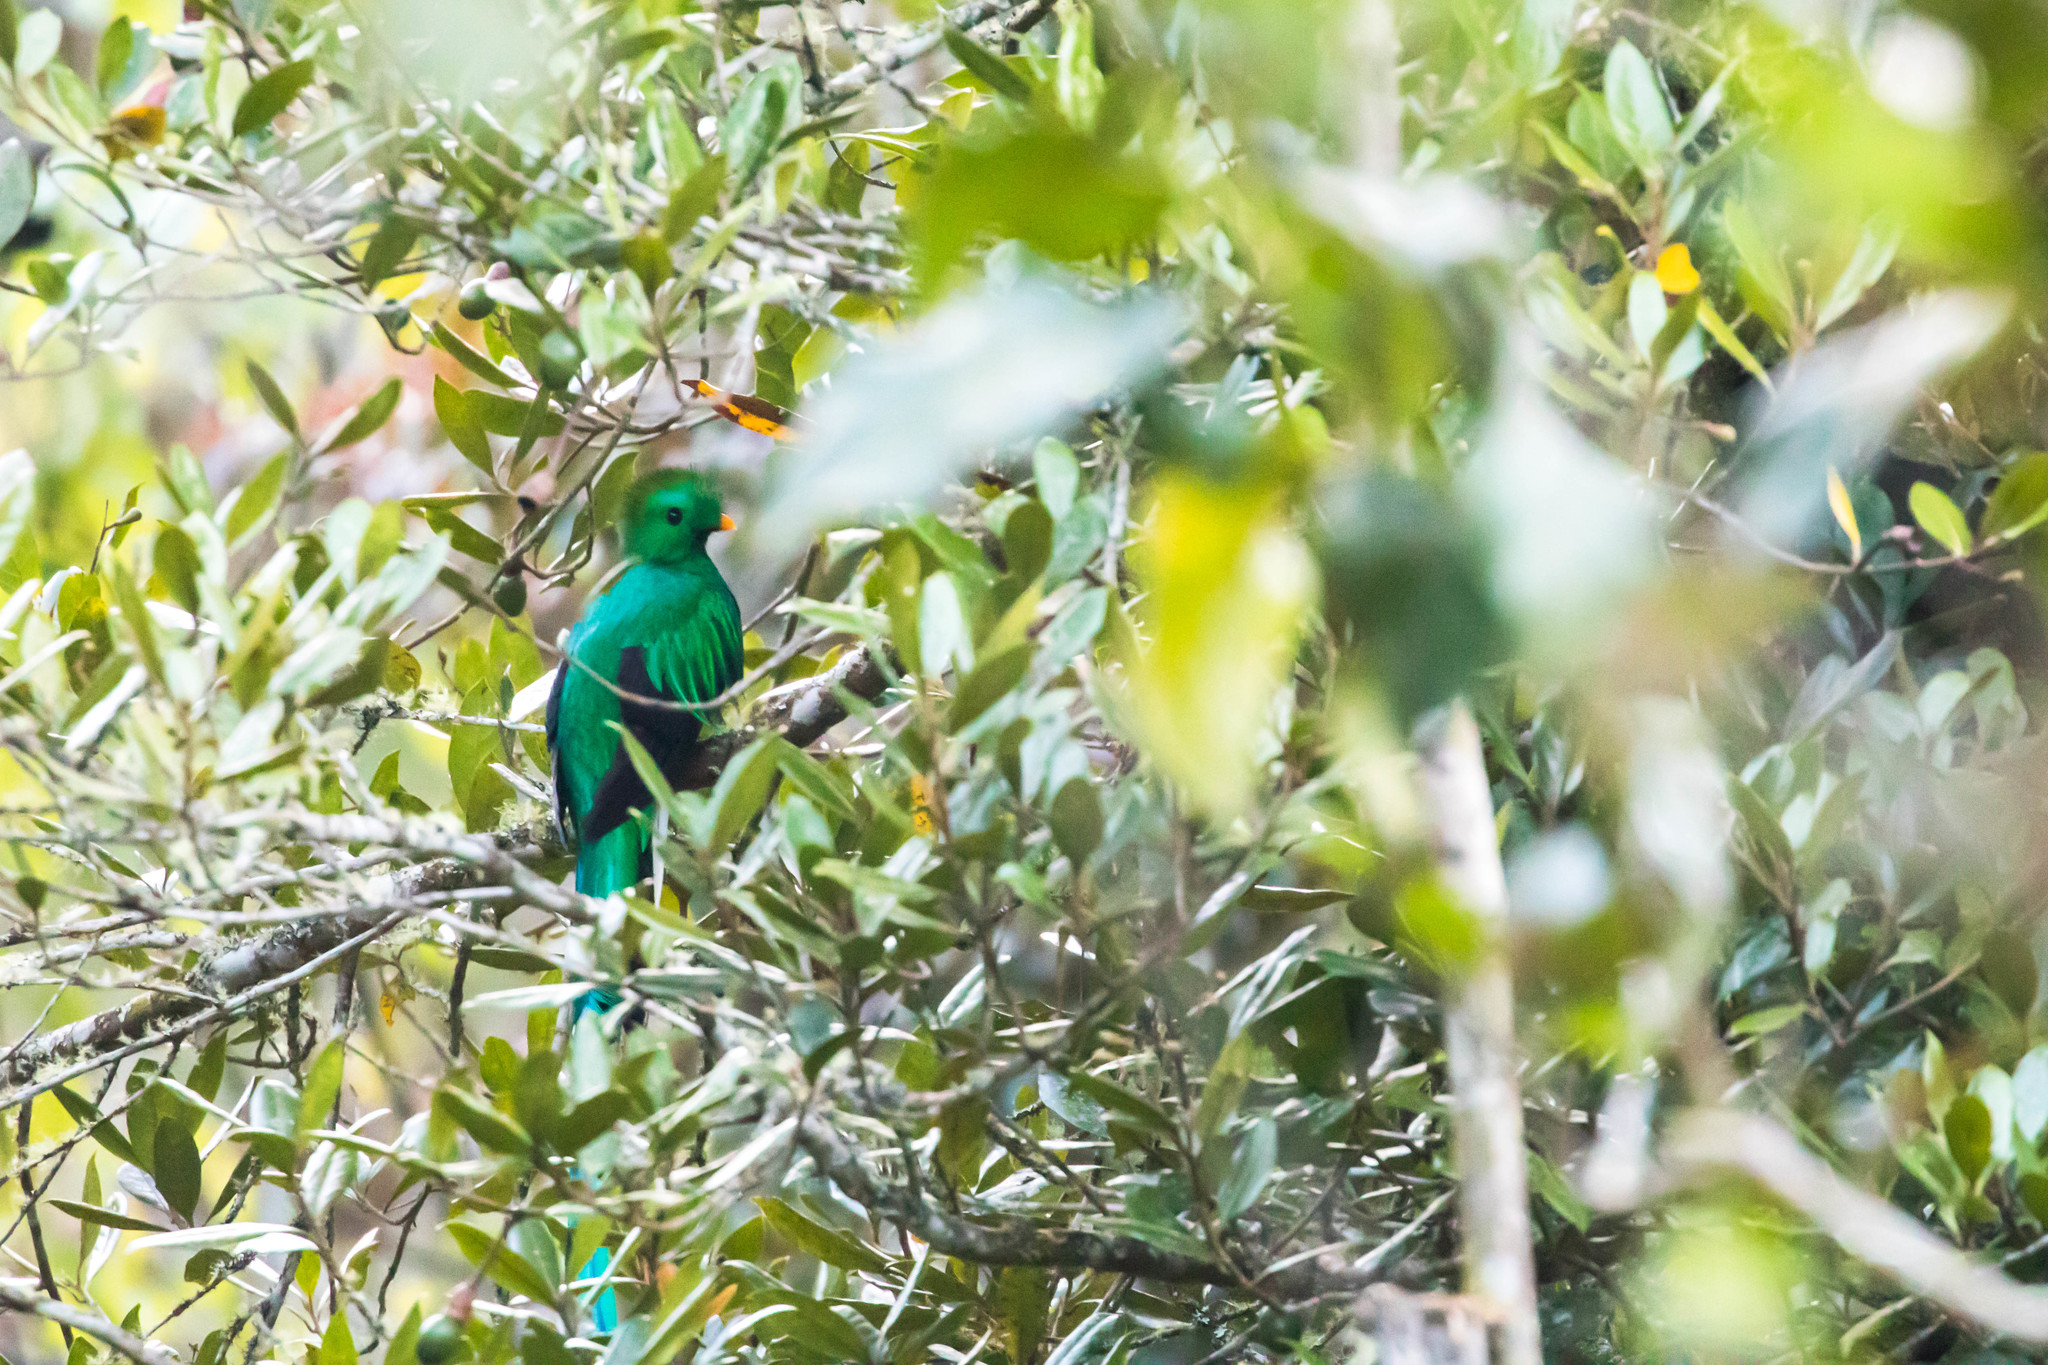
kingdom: Animalia
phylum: Chordata
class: Aves
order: Trogoniformes
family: Trogonidae
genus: Pharomachrus
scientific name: Pharomachrus mocinno
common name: Resplendent quetzal
